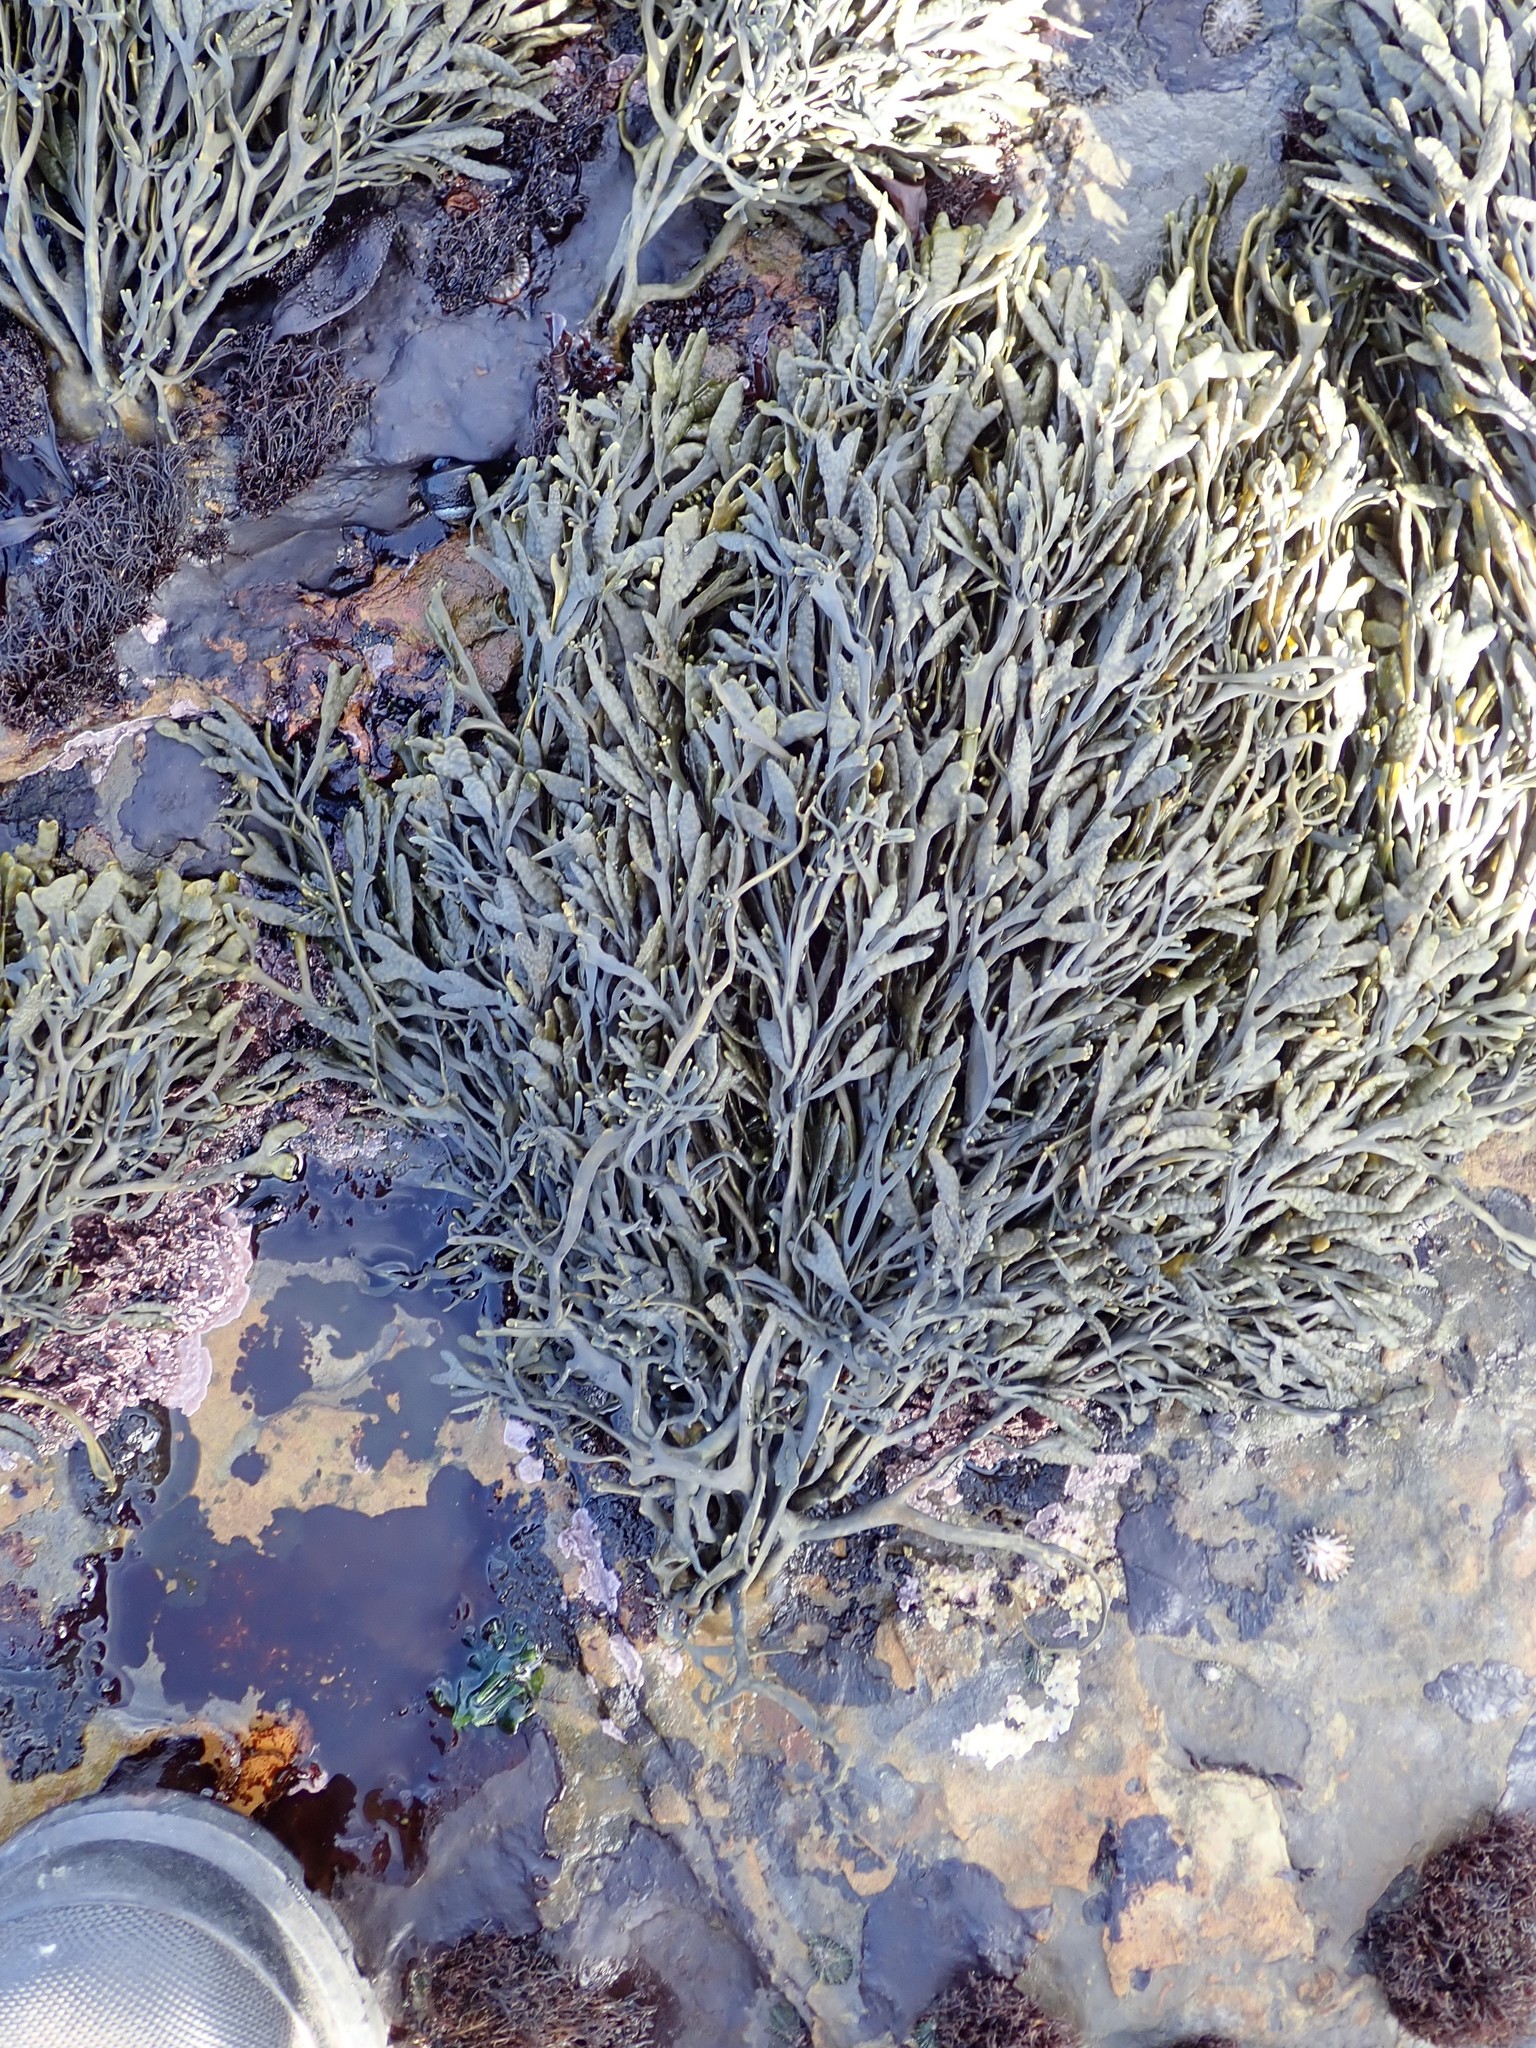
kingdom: Chromista
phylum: Ochrophyta
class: Phaeophyceae
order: Fucales
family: Fucaceae
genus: Silvetia
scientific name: Silvetia
